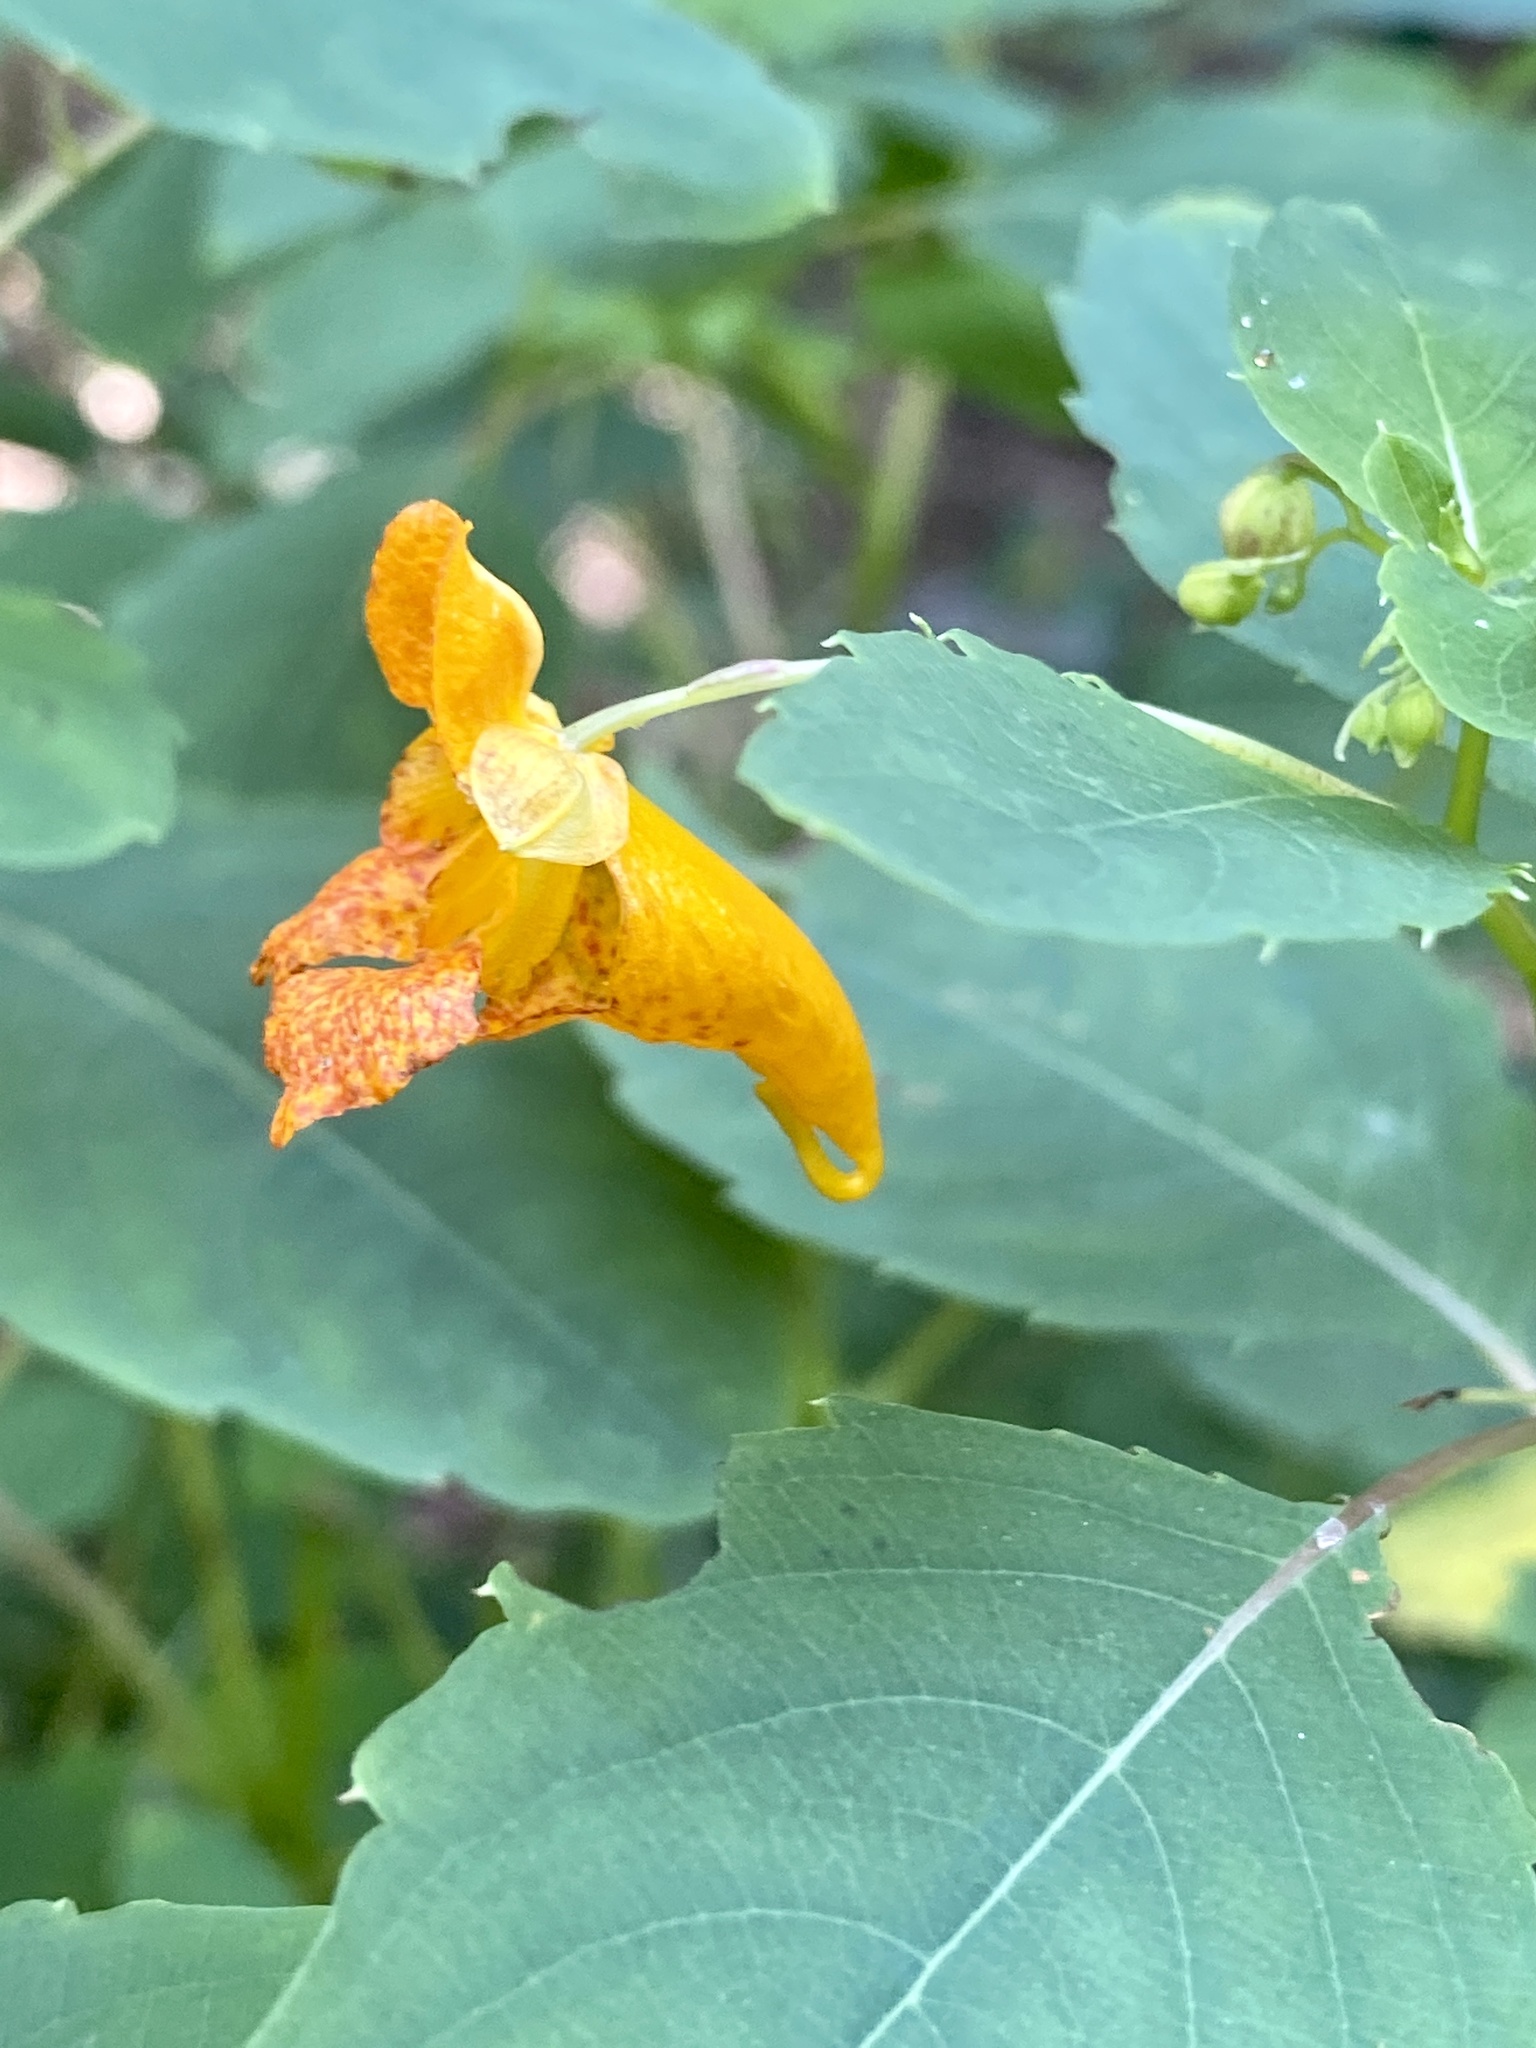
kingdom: Plantae
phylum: Tracheophyta
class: Magnoliopsida
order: Ericales
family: Balsaminaceae
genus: Impatiens
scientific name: Impatiens capensis
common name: Orange balsam
